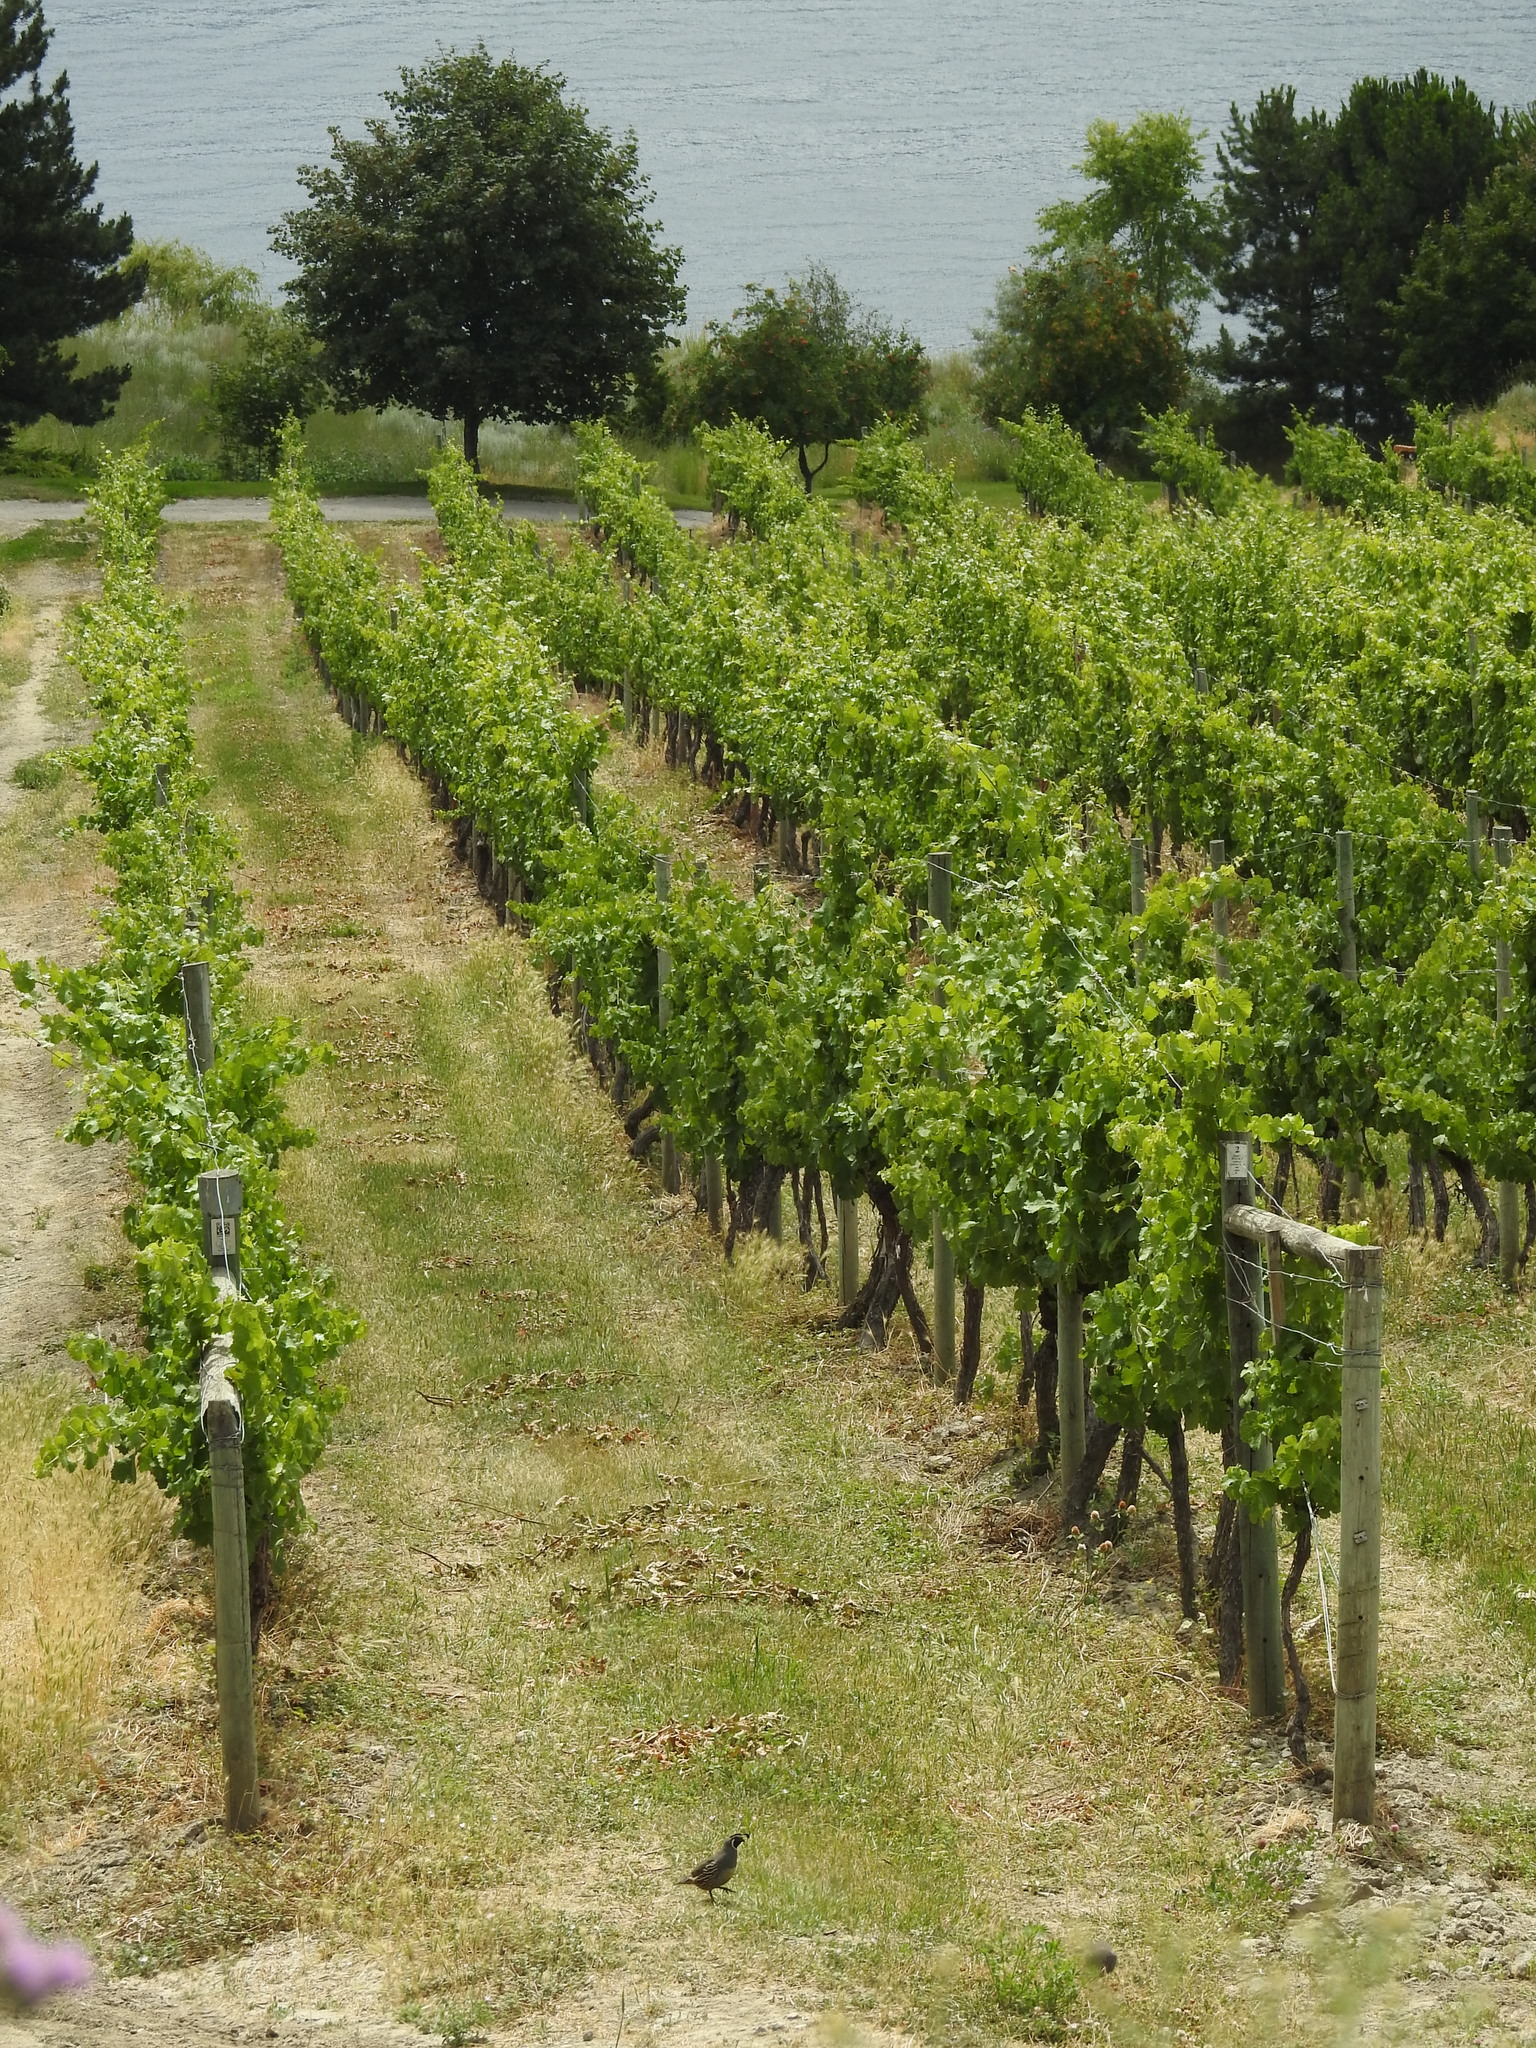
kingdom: Animalia
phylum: Chordata
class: Aves
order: Galliformes
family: Odontophoridae
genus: Callipepla
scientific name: Callipepla californica
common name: California quail
